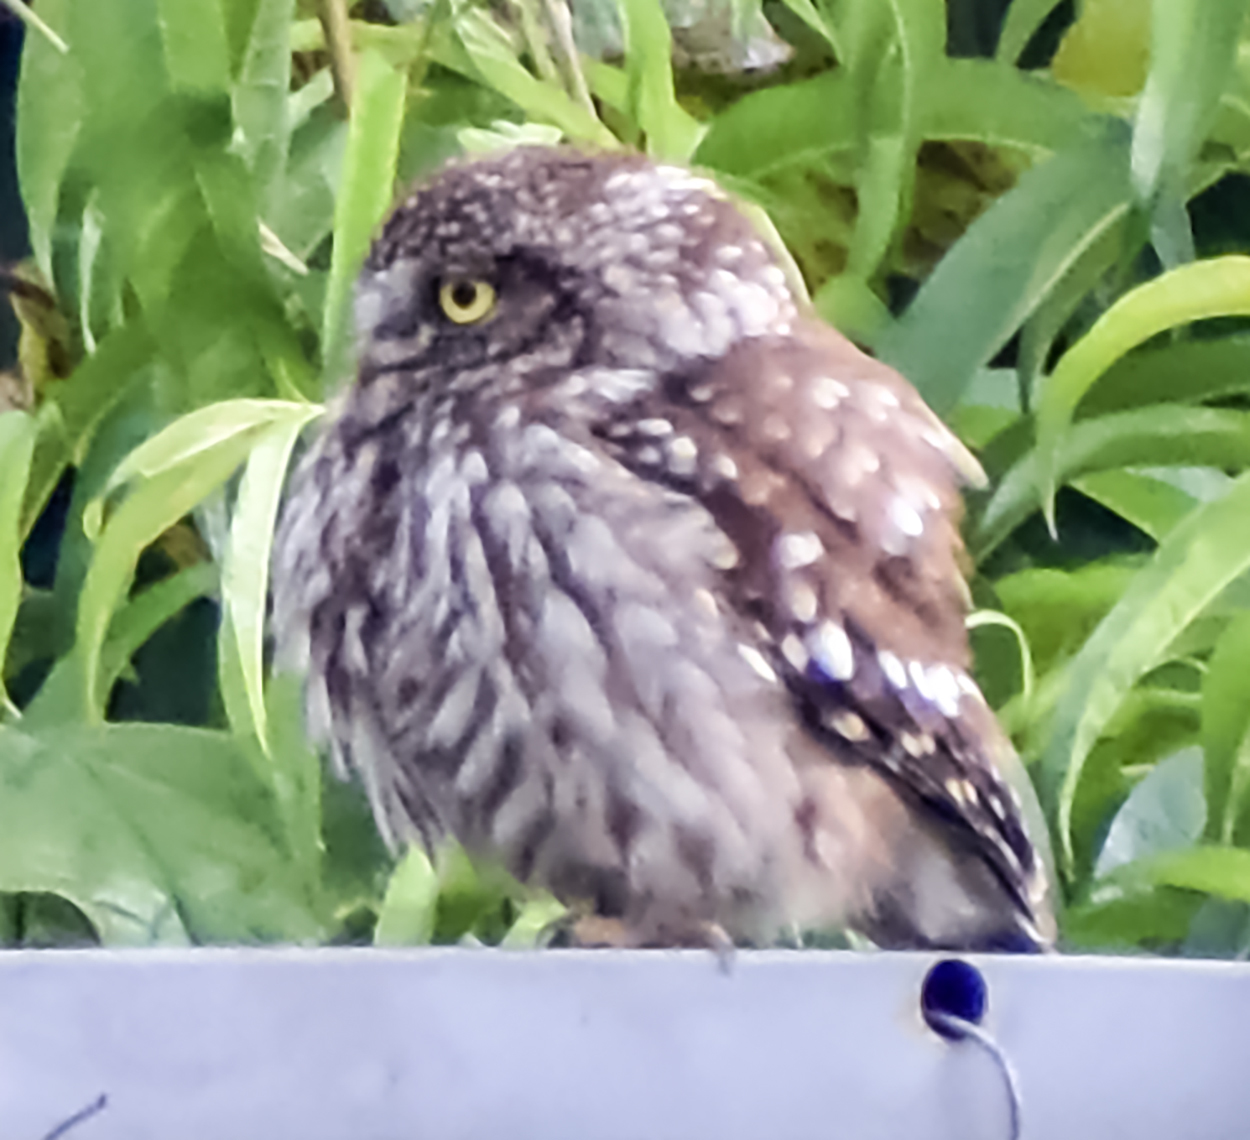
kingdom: Animalia
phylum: Chordata
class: Aves
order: Strigiformes
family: Strigidae
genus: Athene
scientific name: Athene noctua
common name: Little owl
